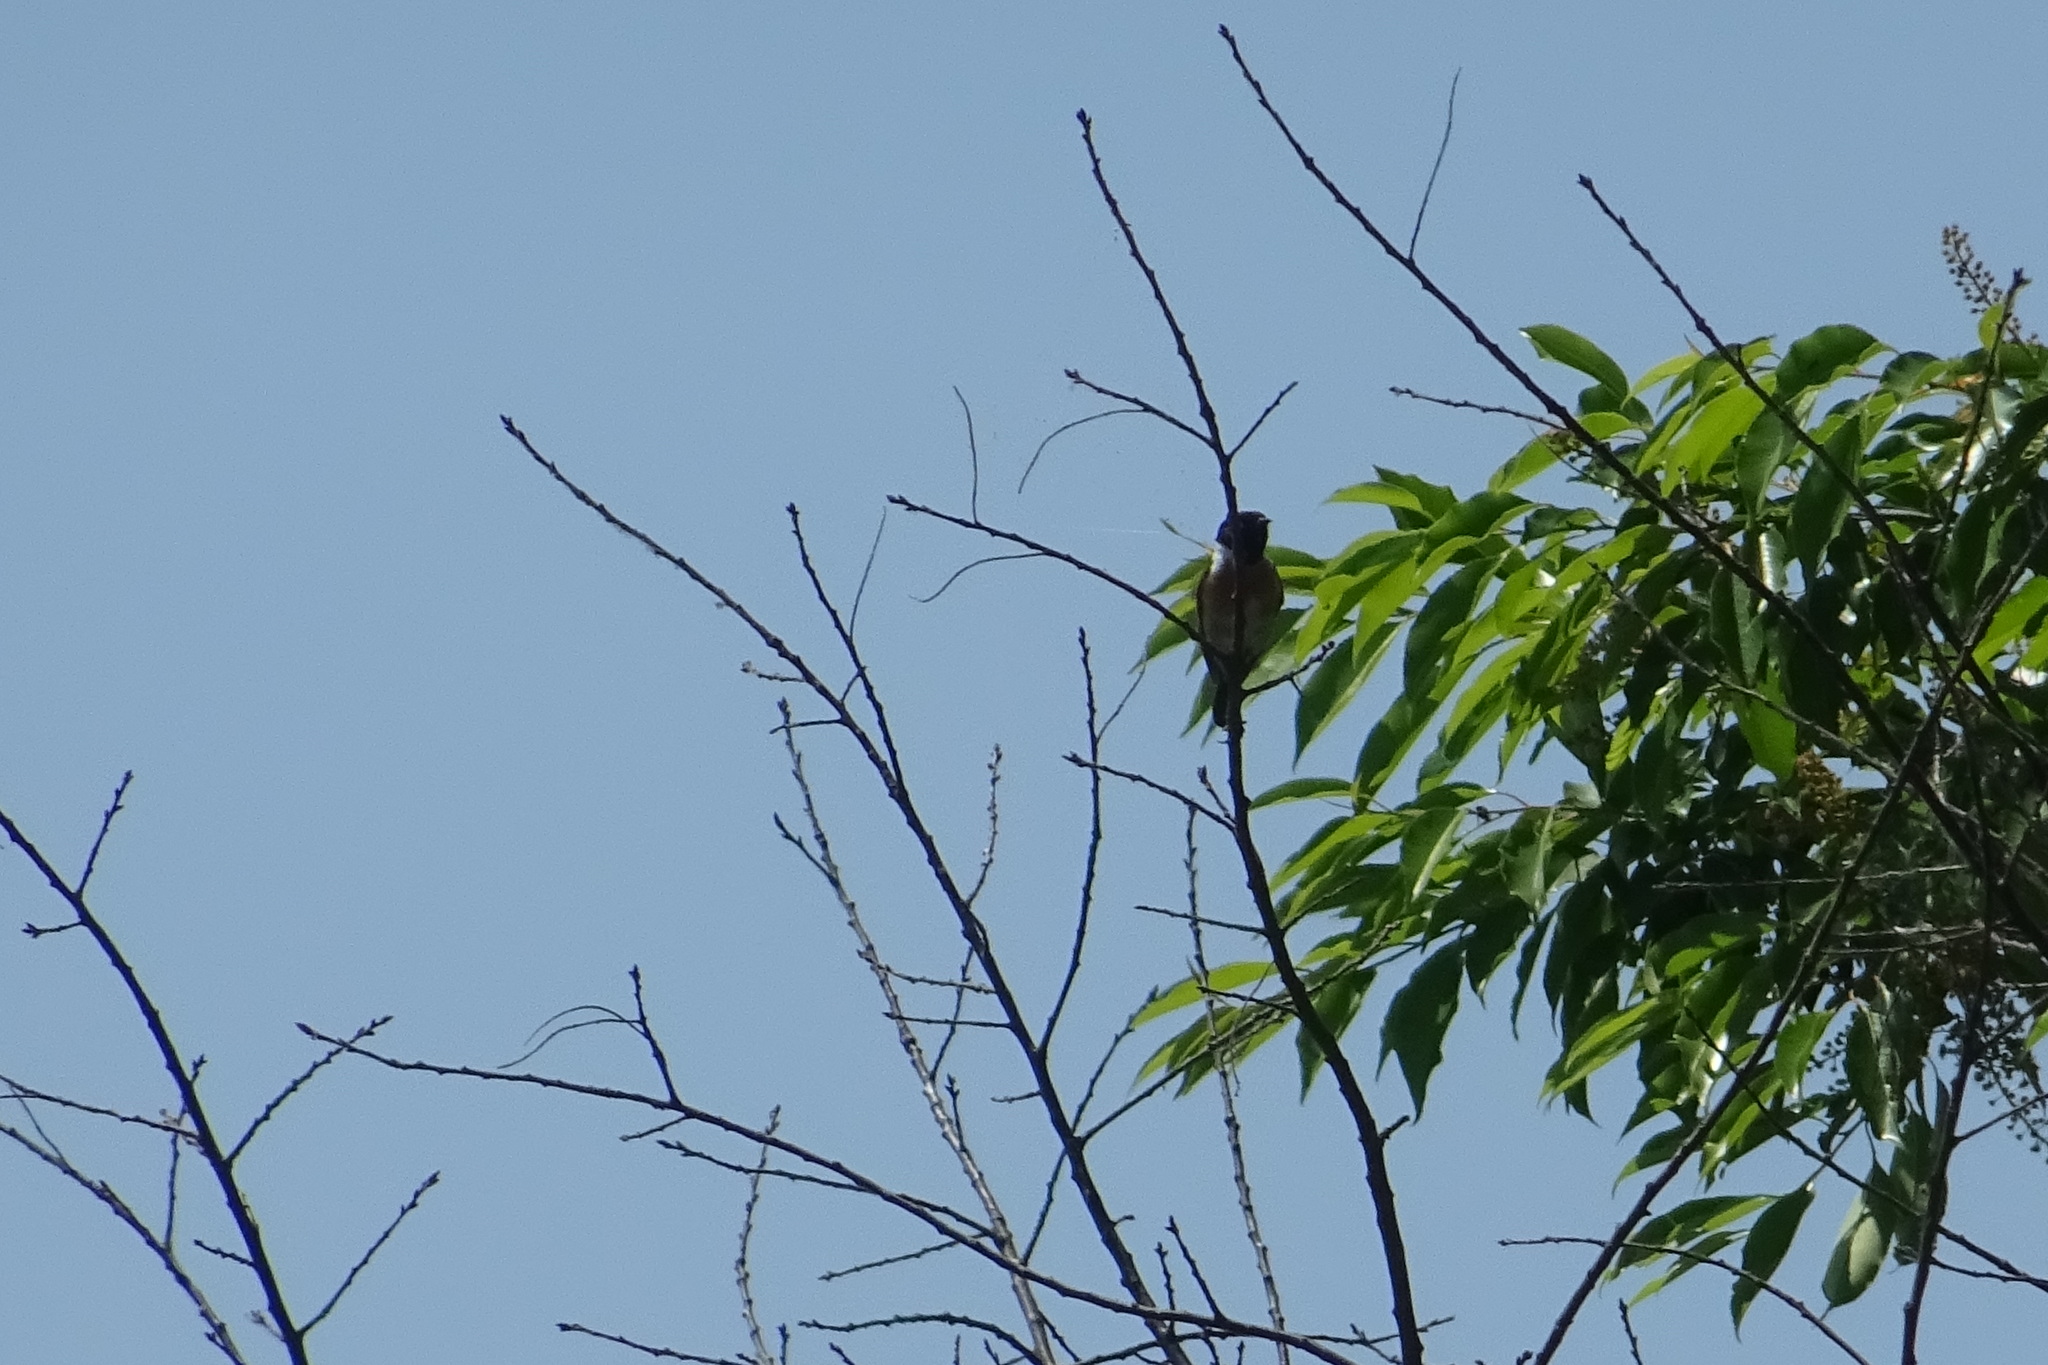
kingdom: Animalia
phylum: Chordata
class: Aves
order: Passeriformes
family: Muscicapidae
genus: Saxicola
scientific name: Saxicola rubicola
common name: European stonechat
